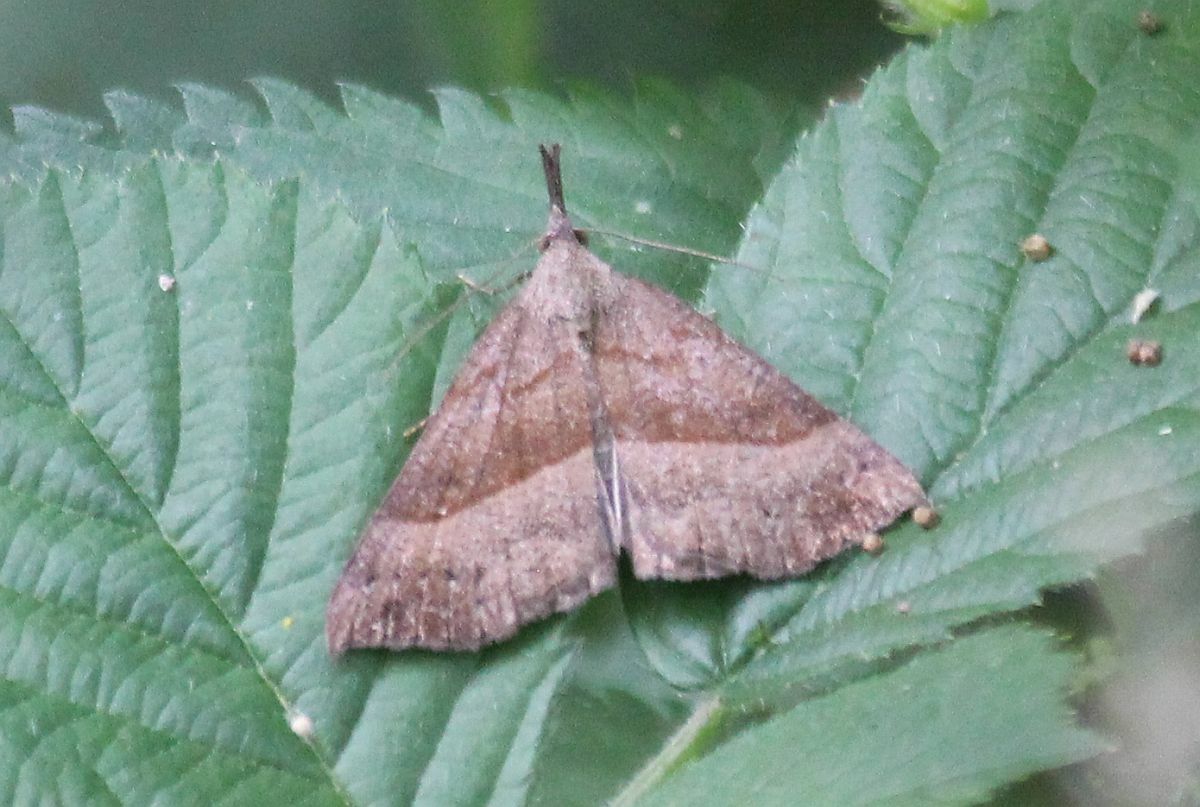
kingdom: Animalia
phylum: Arthropoda
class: Insecta
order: Lepidoptera
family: Erebidae
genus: Hypena
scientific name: Hypena proboscidalis
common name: Snout
